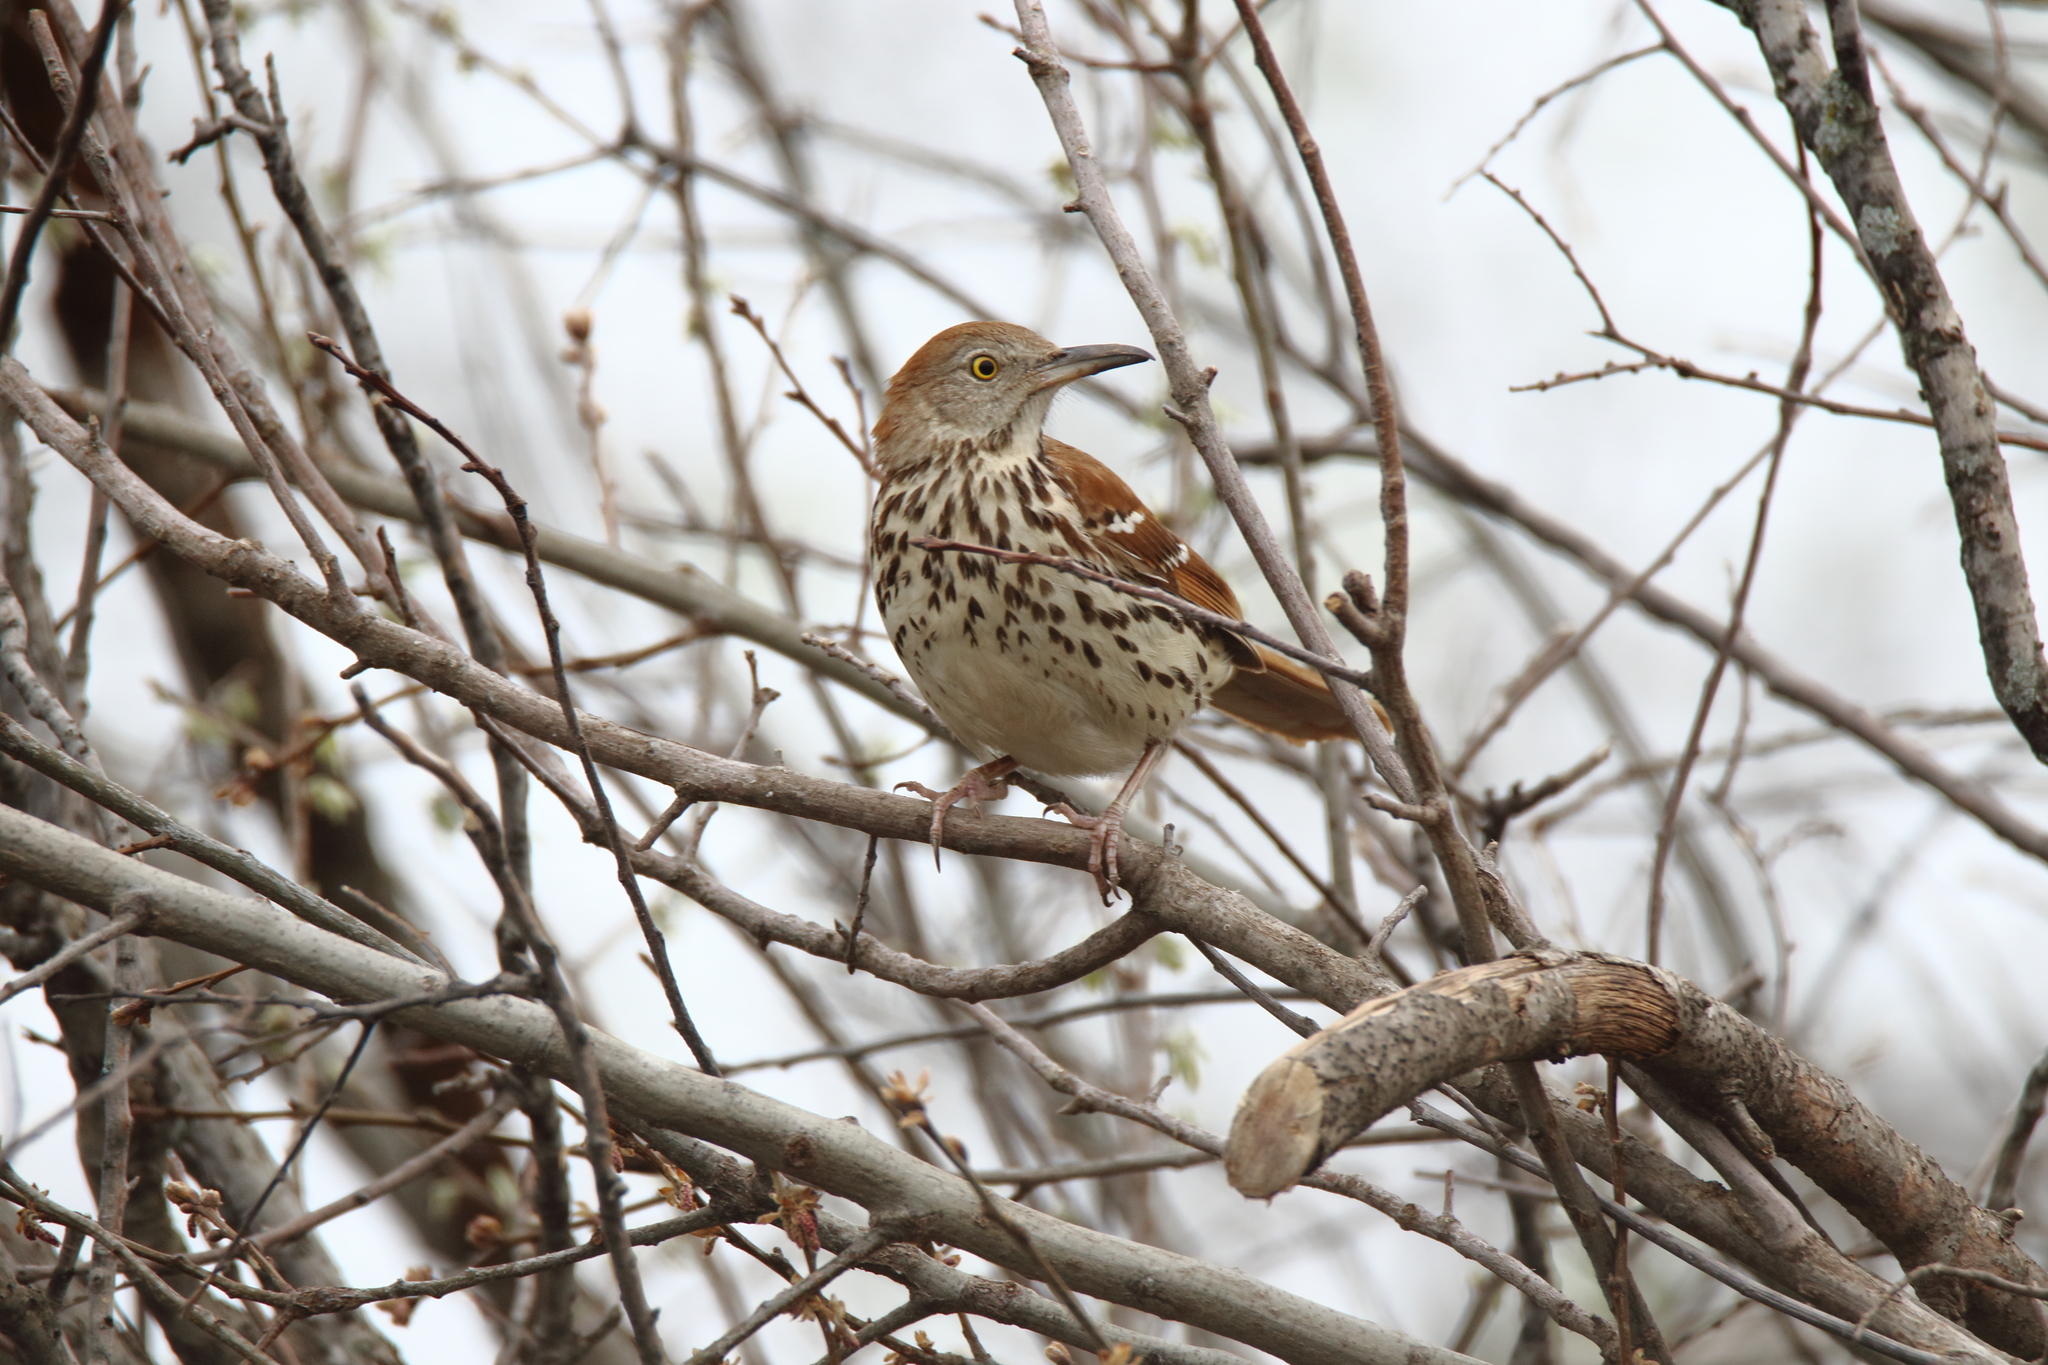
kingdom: Animalia
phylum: Chordata
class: Aves
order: Passeriformes
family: Mimidae
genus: Toxostoma
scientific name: Toxostoma rufum
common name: Brown thrasher
